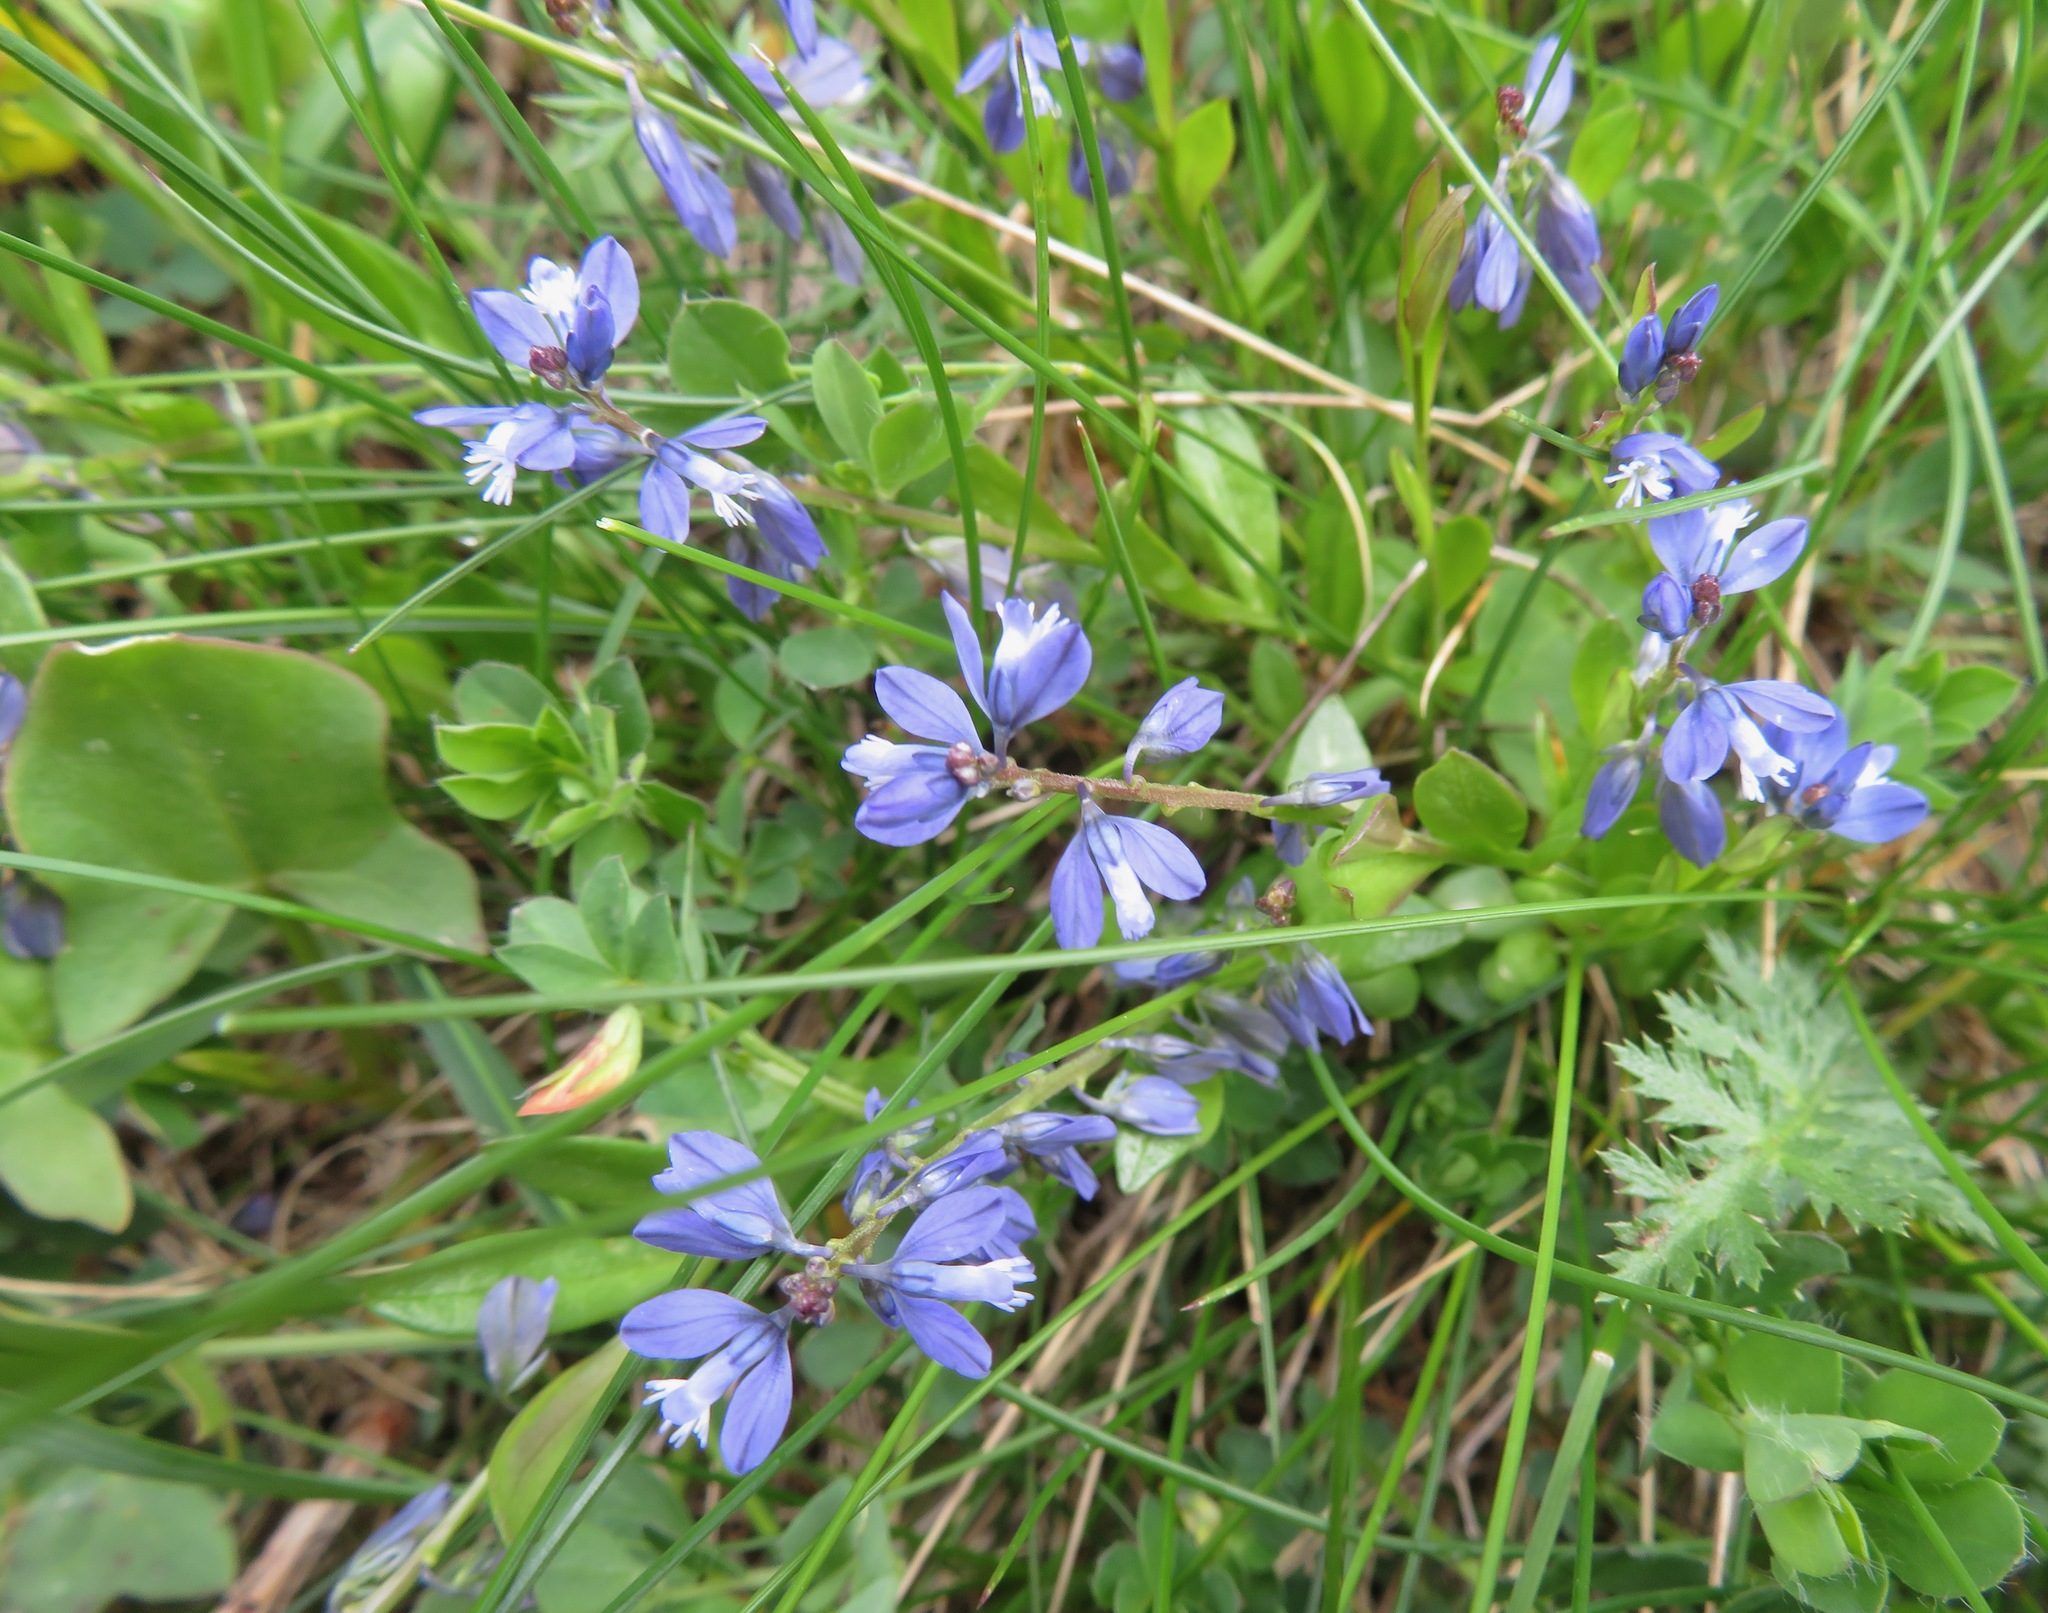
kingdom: Plantae
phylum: Tracheophyta
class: Magnoliopsida
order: Fabales
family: Polygalaceae
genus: Polygala
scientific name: Polygala alpestris
